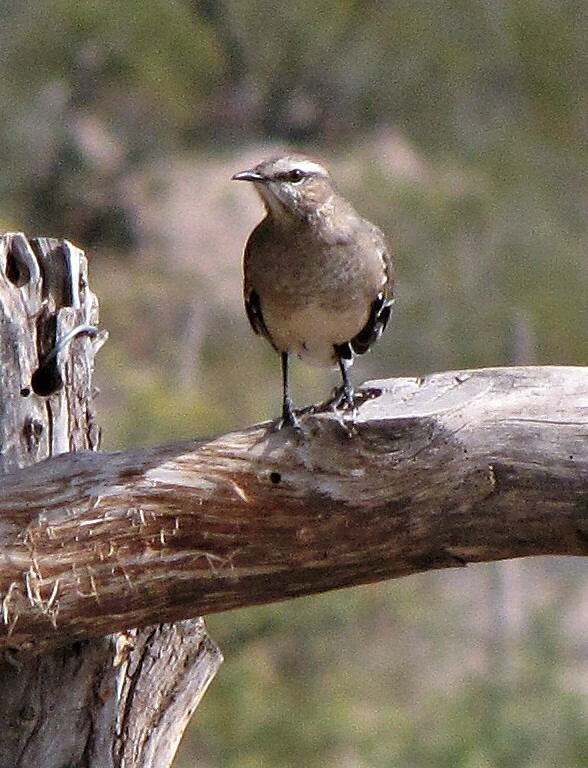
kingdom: Animalia
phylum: Chordata
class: Aves
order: Passeriformes
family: Mimidae
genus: Mimus
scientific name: Mimus patagonicus
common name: Patagonian mockingbird
